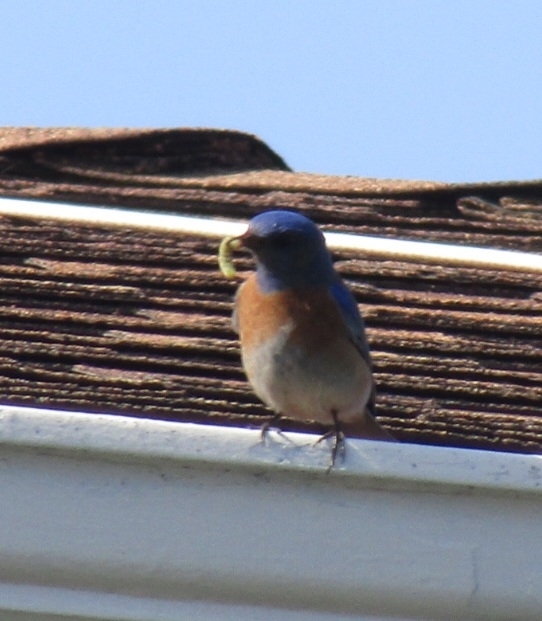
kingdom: Animalia
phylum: Chordata
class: Aves
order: Passeriformes
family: Turdidae
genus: Sialia
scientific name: Sialia mexicana
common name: Western bluebird
